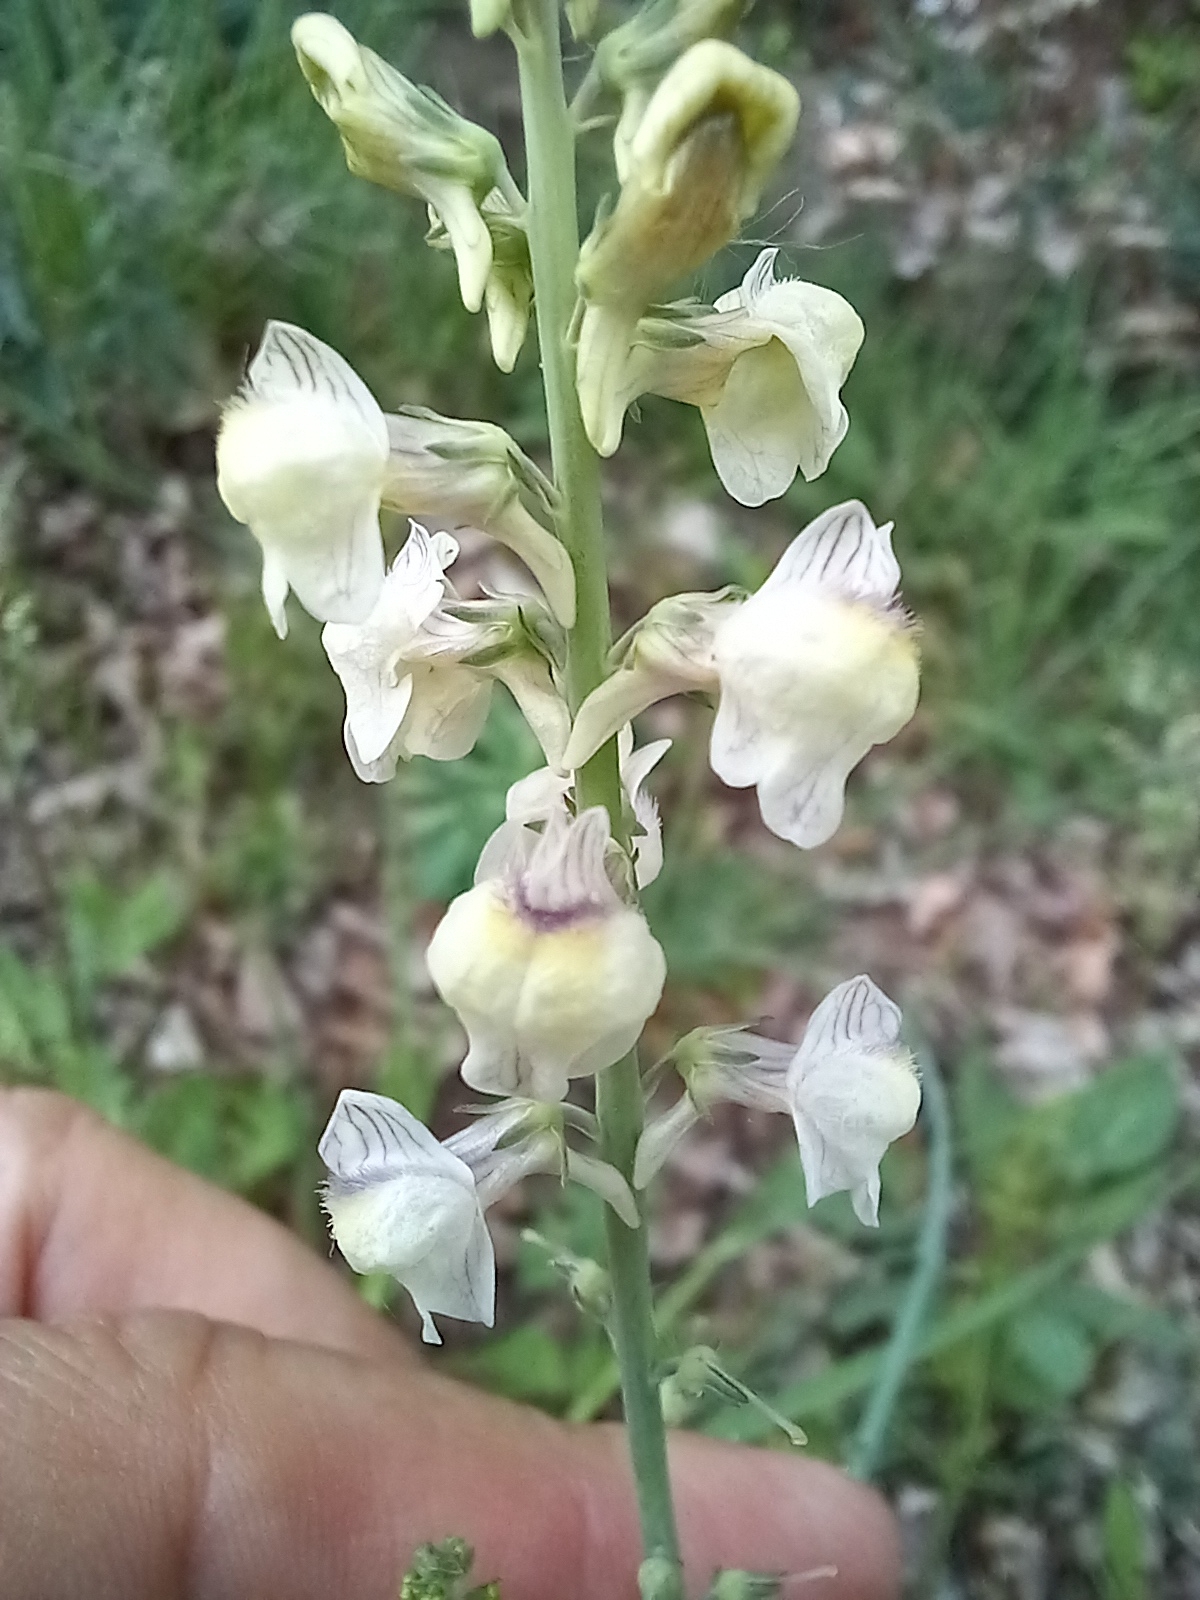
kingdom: Plantae
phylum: Tracheophyta
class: Magnoliopsida
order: Lamiales
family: Plantaginaceae
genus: Linaria
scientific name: Linaria repens
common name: Pale toadflax
